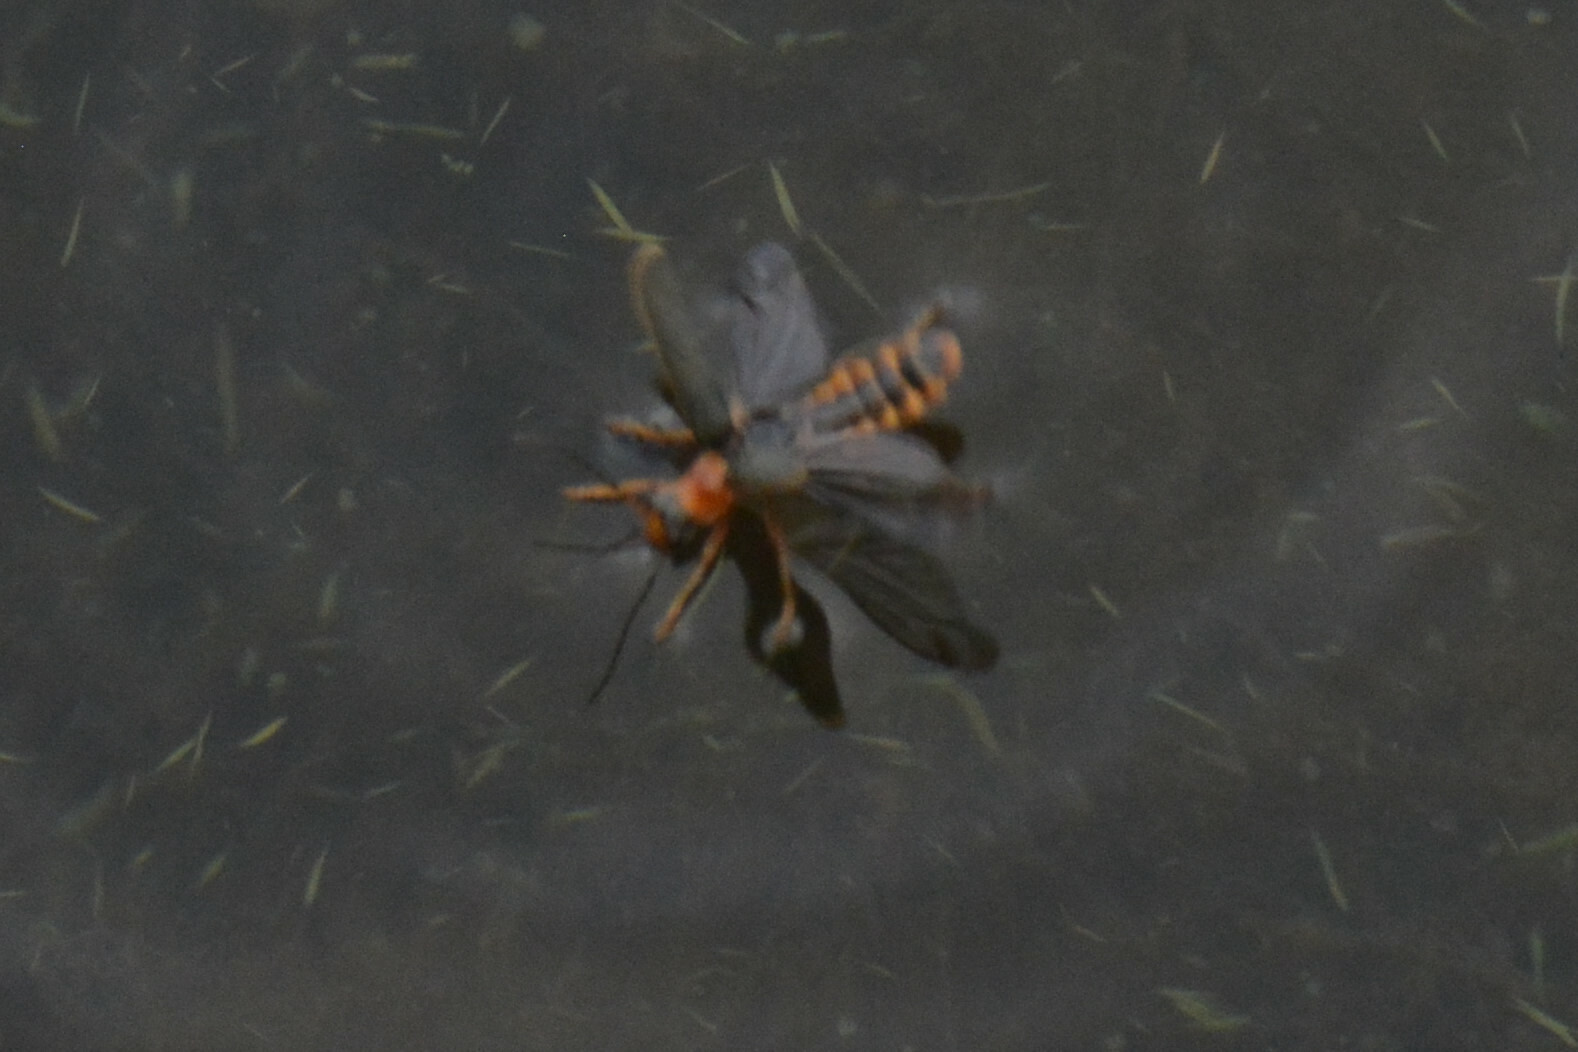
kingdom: Animalia
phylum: Arthropoda
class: Insecta
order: Coleoptera
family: Cantharidae
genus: Cantharis
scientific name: Cantharis lateralis
